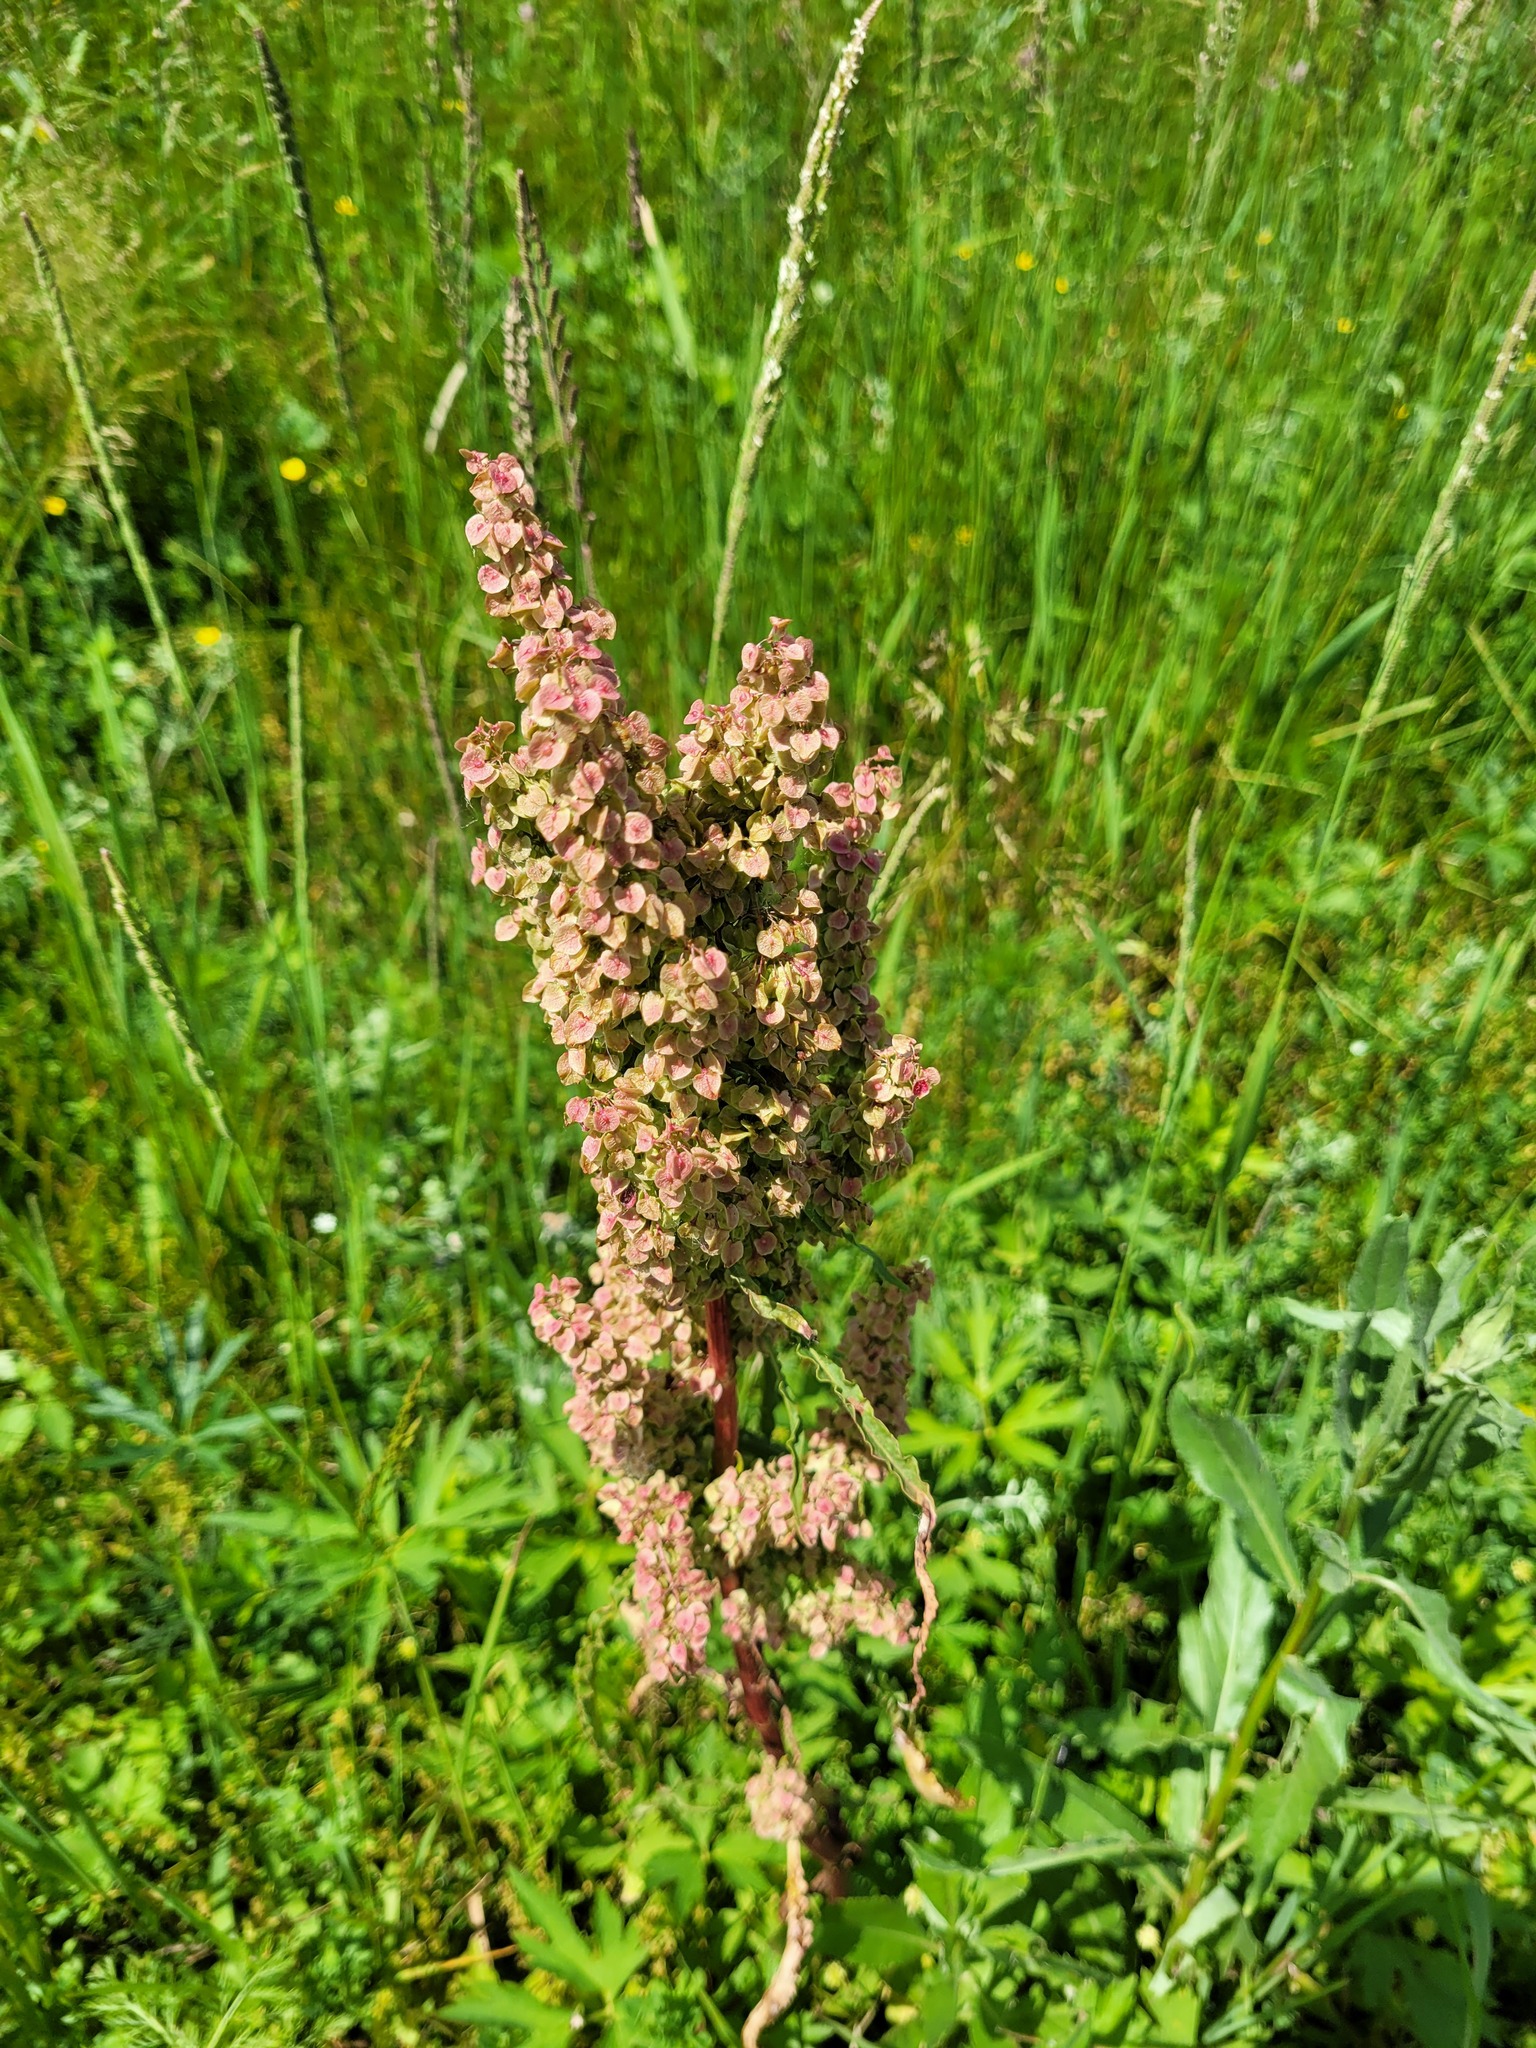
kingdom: Plantae
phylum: Tracheophyta
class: Magnoliopsida
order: Caryophyllales
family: Polygonaceae
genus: Rumex
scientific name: Rumex pseudonatronatus
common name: Field dock
